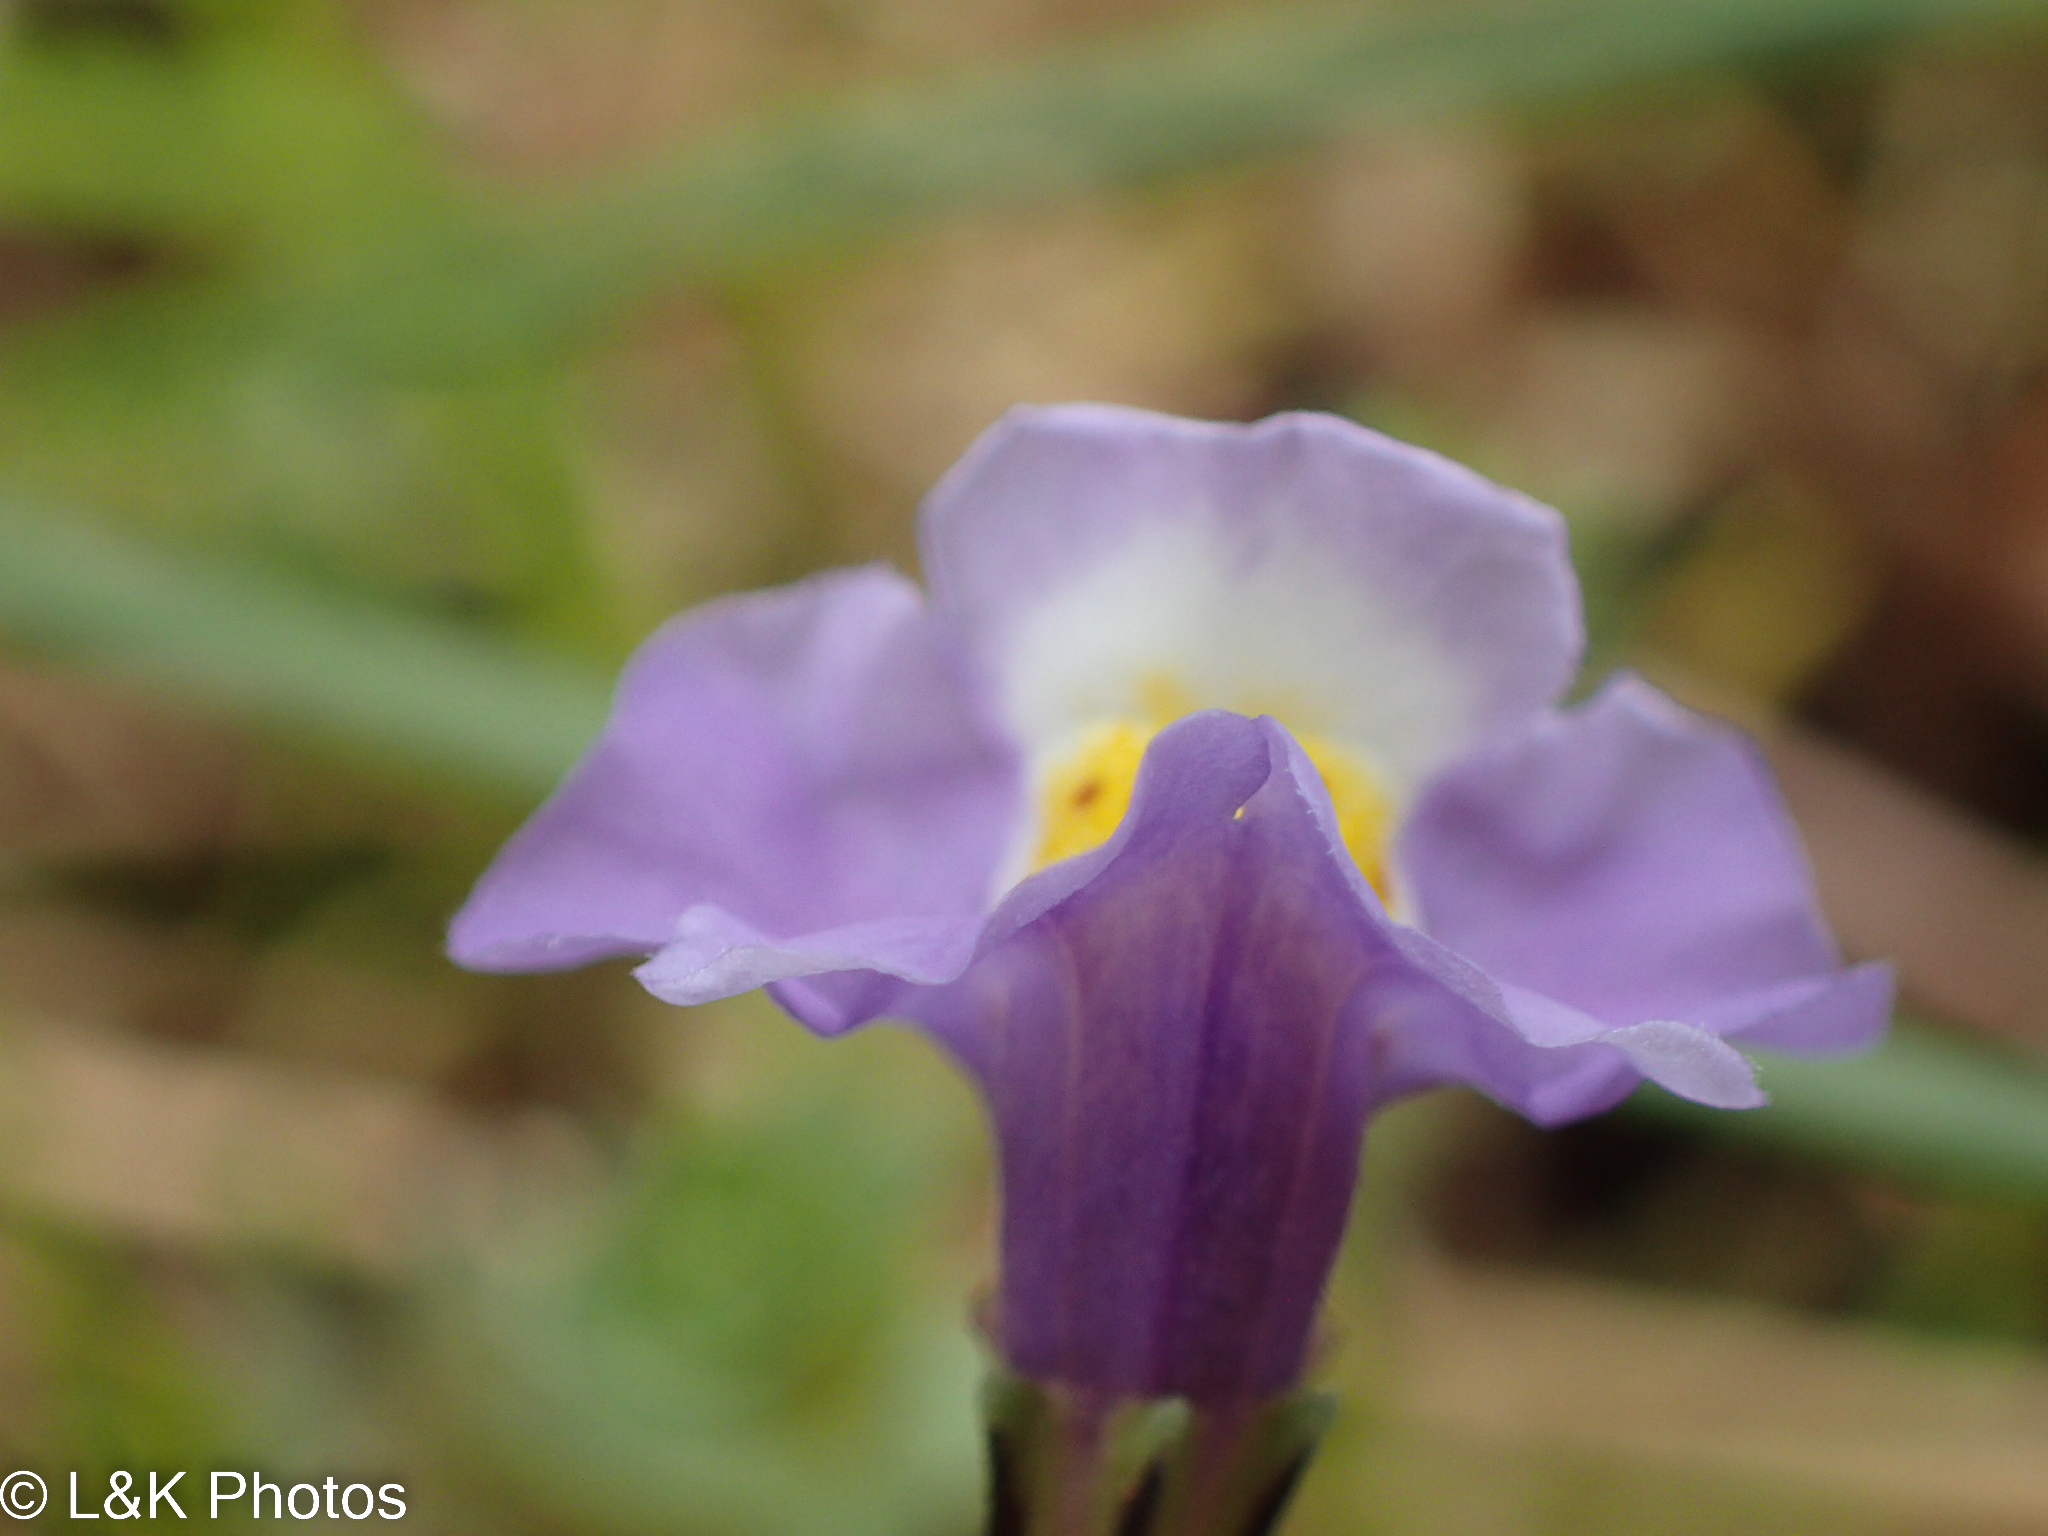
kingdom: Plantae
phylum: Tracheophyta
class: Magnoliopsida
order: Lamiales
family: Phrymaceae
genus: Thyridia
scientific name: Thyridia repens
